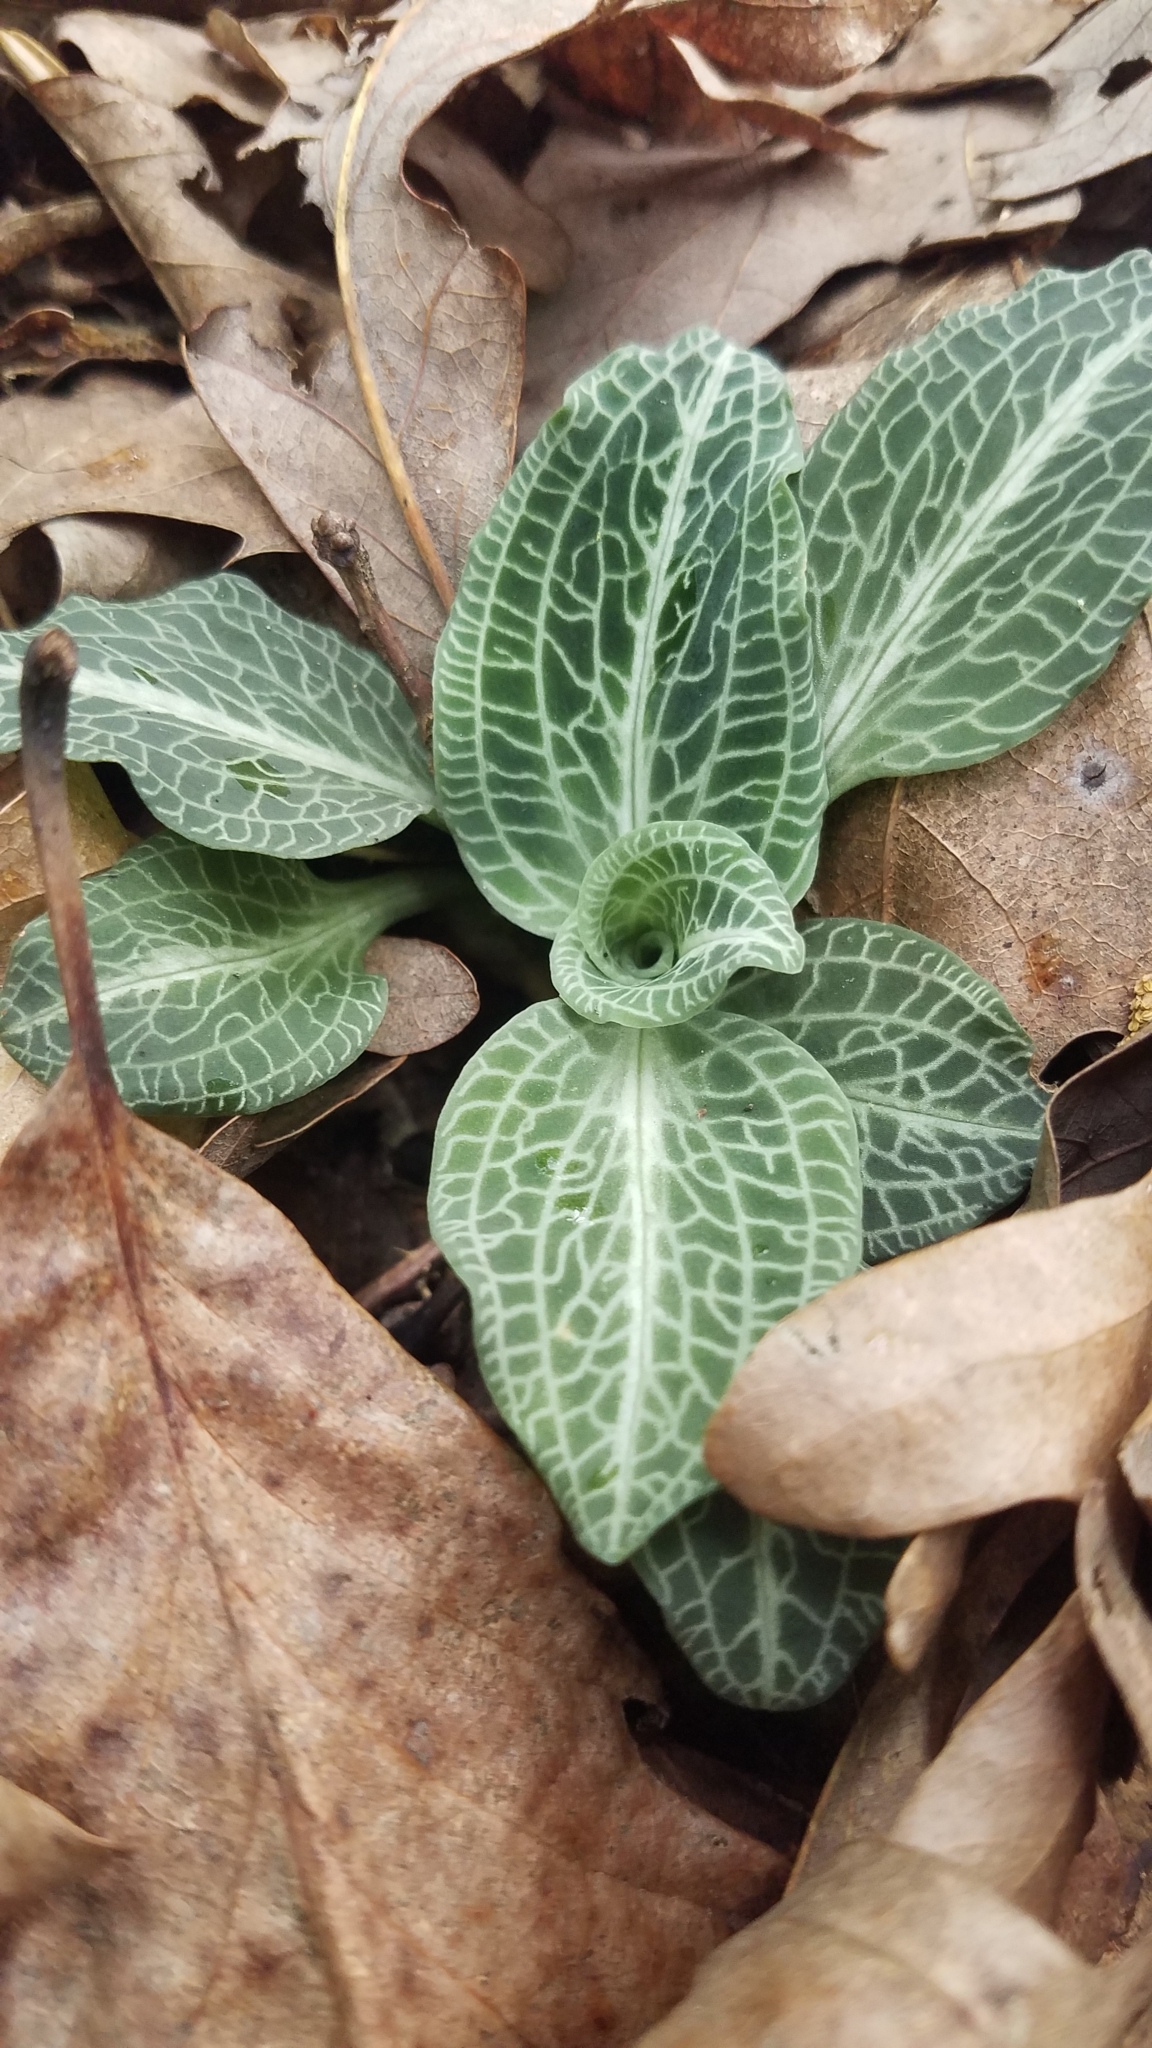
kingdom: Plantae
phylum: Tracheophyta
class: Liliopsida
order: Asparagales
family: Orchidaceae
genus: Goodyera
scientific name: Goodyera pubescens
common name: Downy rattlesnake-plantain
